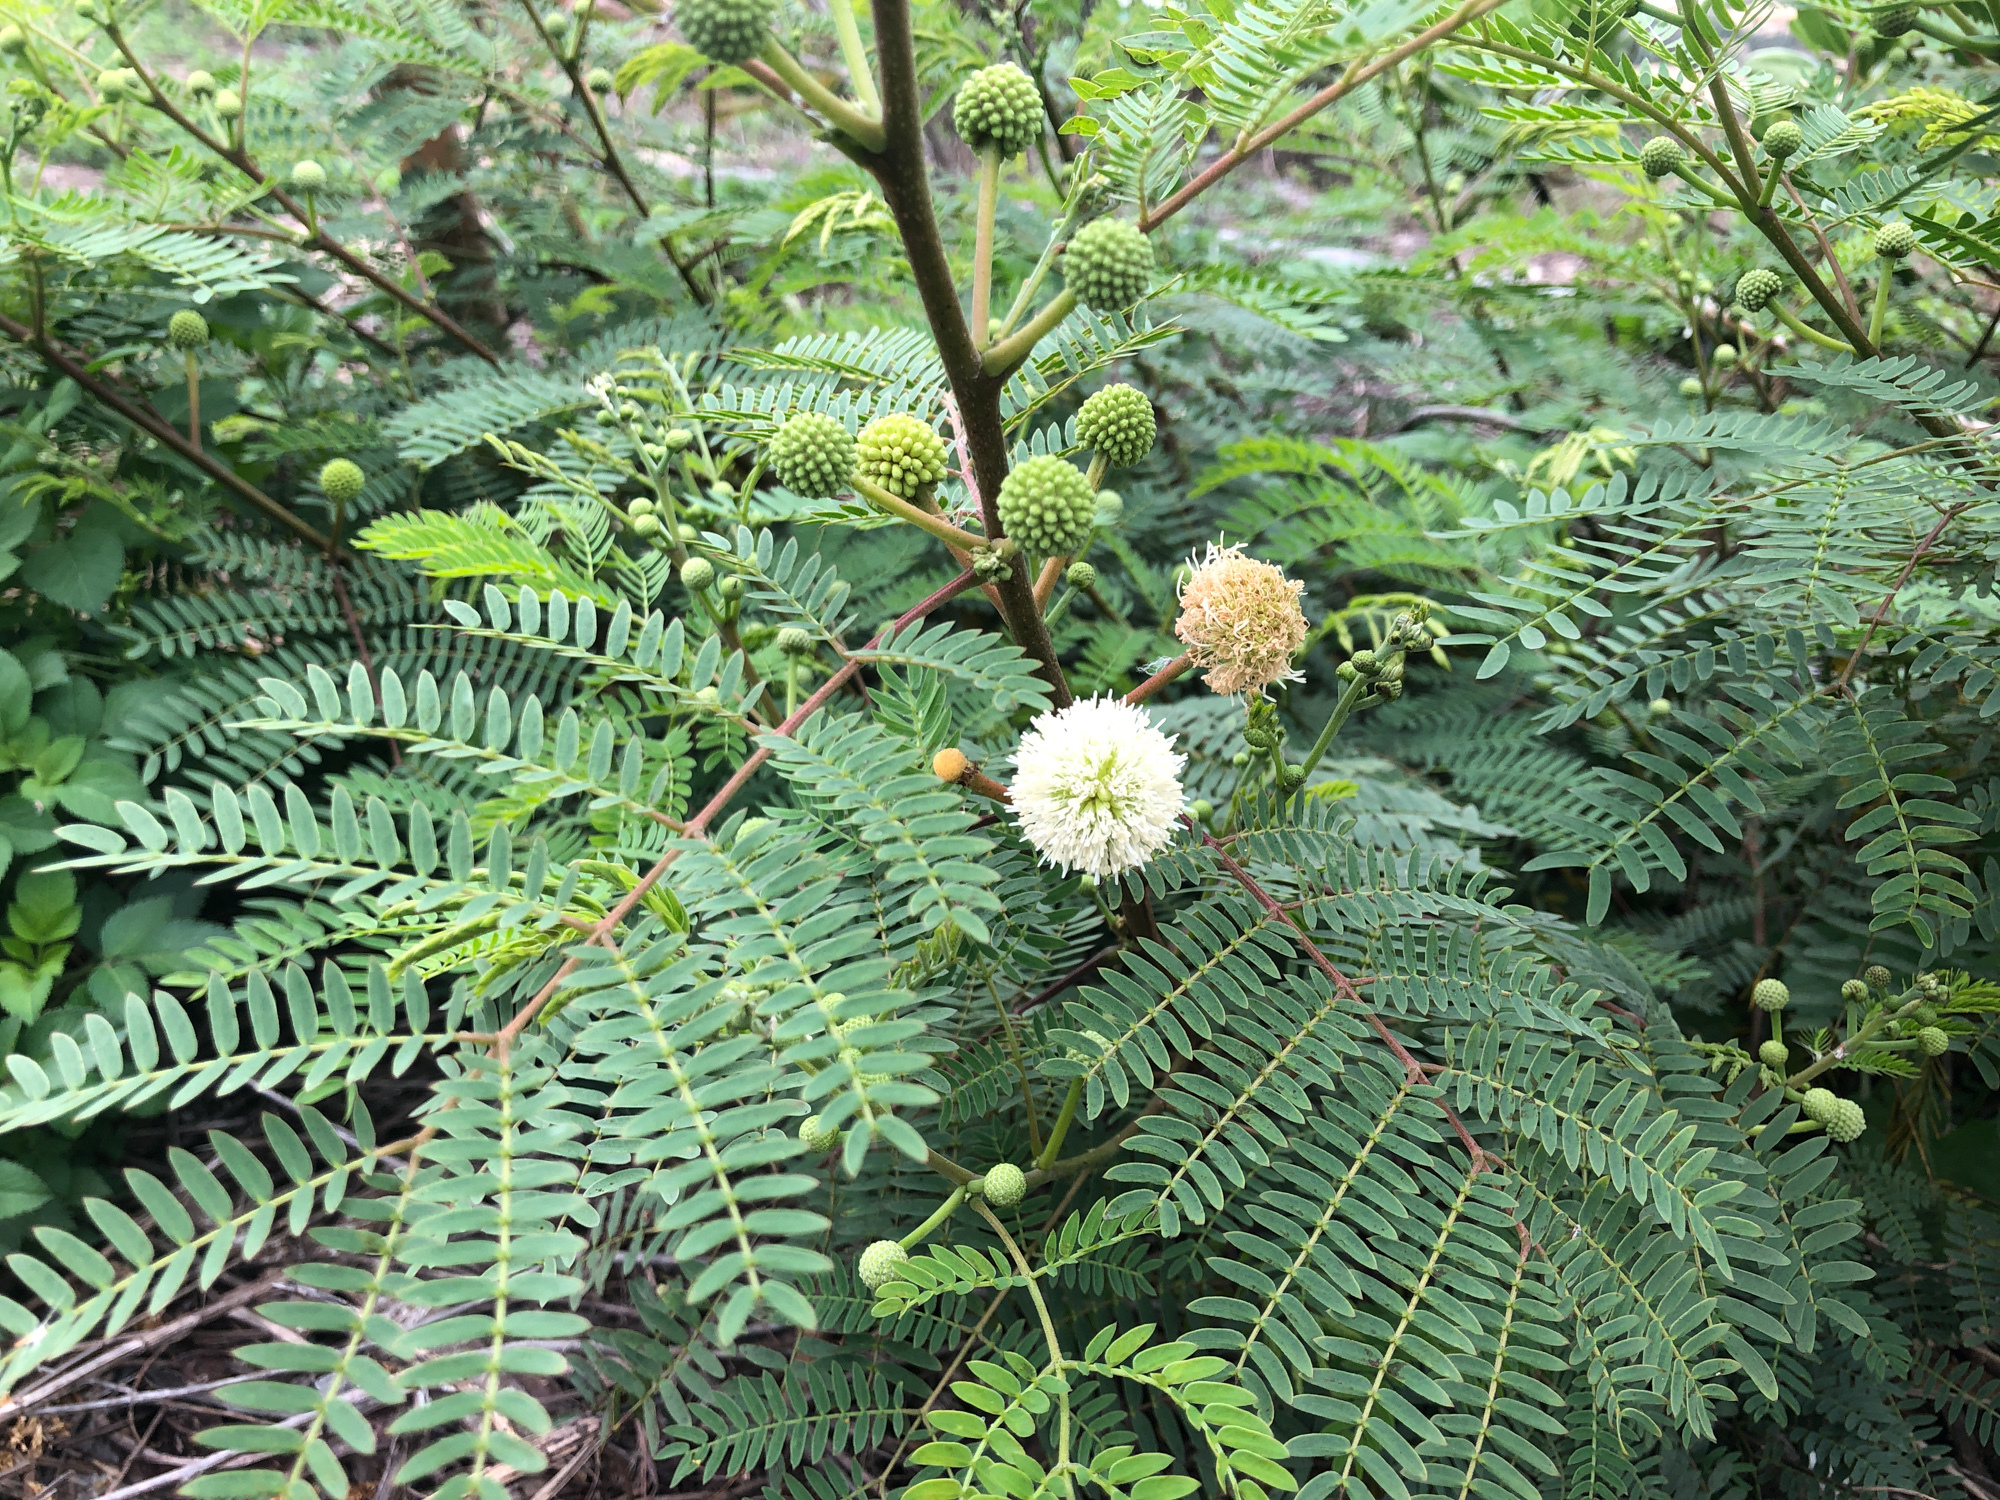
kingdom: Plantae
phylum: Tracheophyta
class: Magnoliopsida
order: Fabales
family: Fabaceae
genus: Leucaena
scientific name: Leucaena leucocephala
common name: White leadtree
